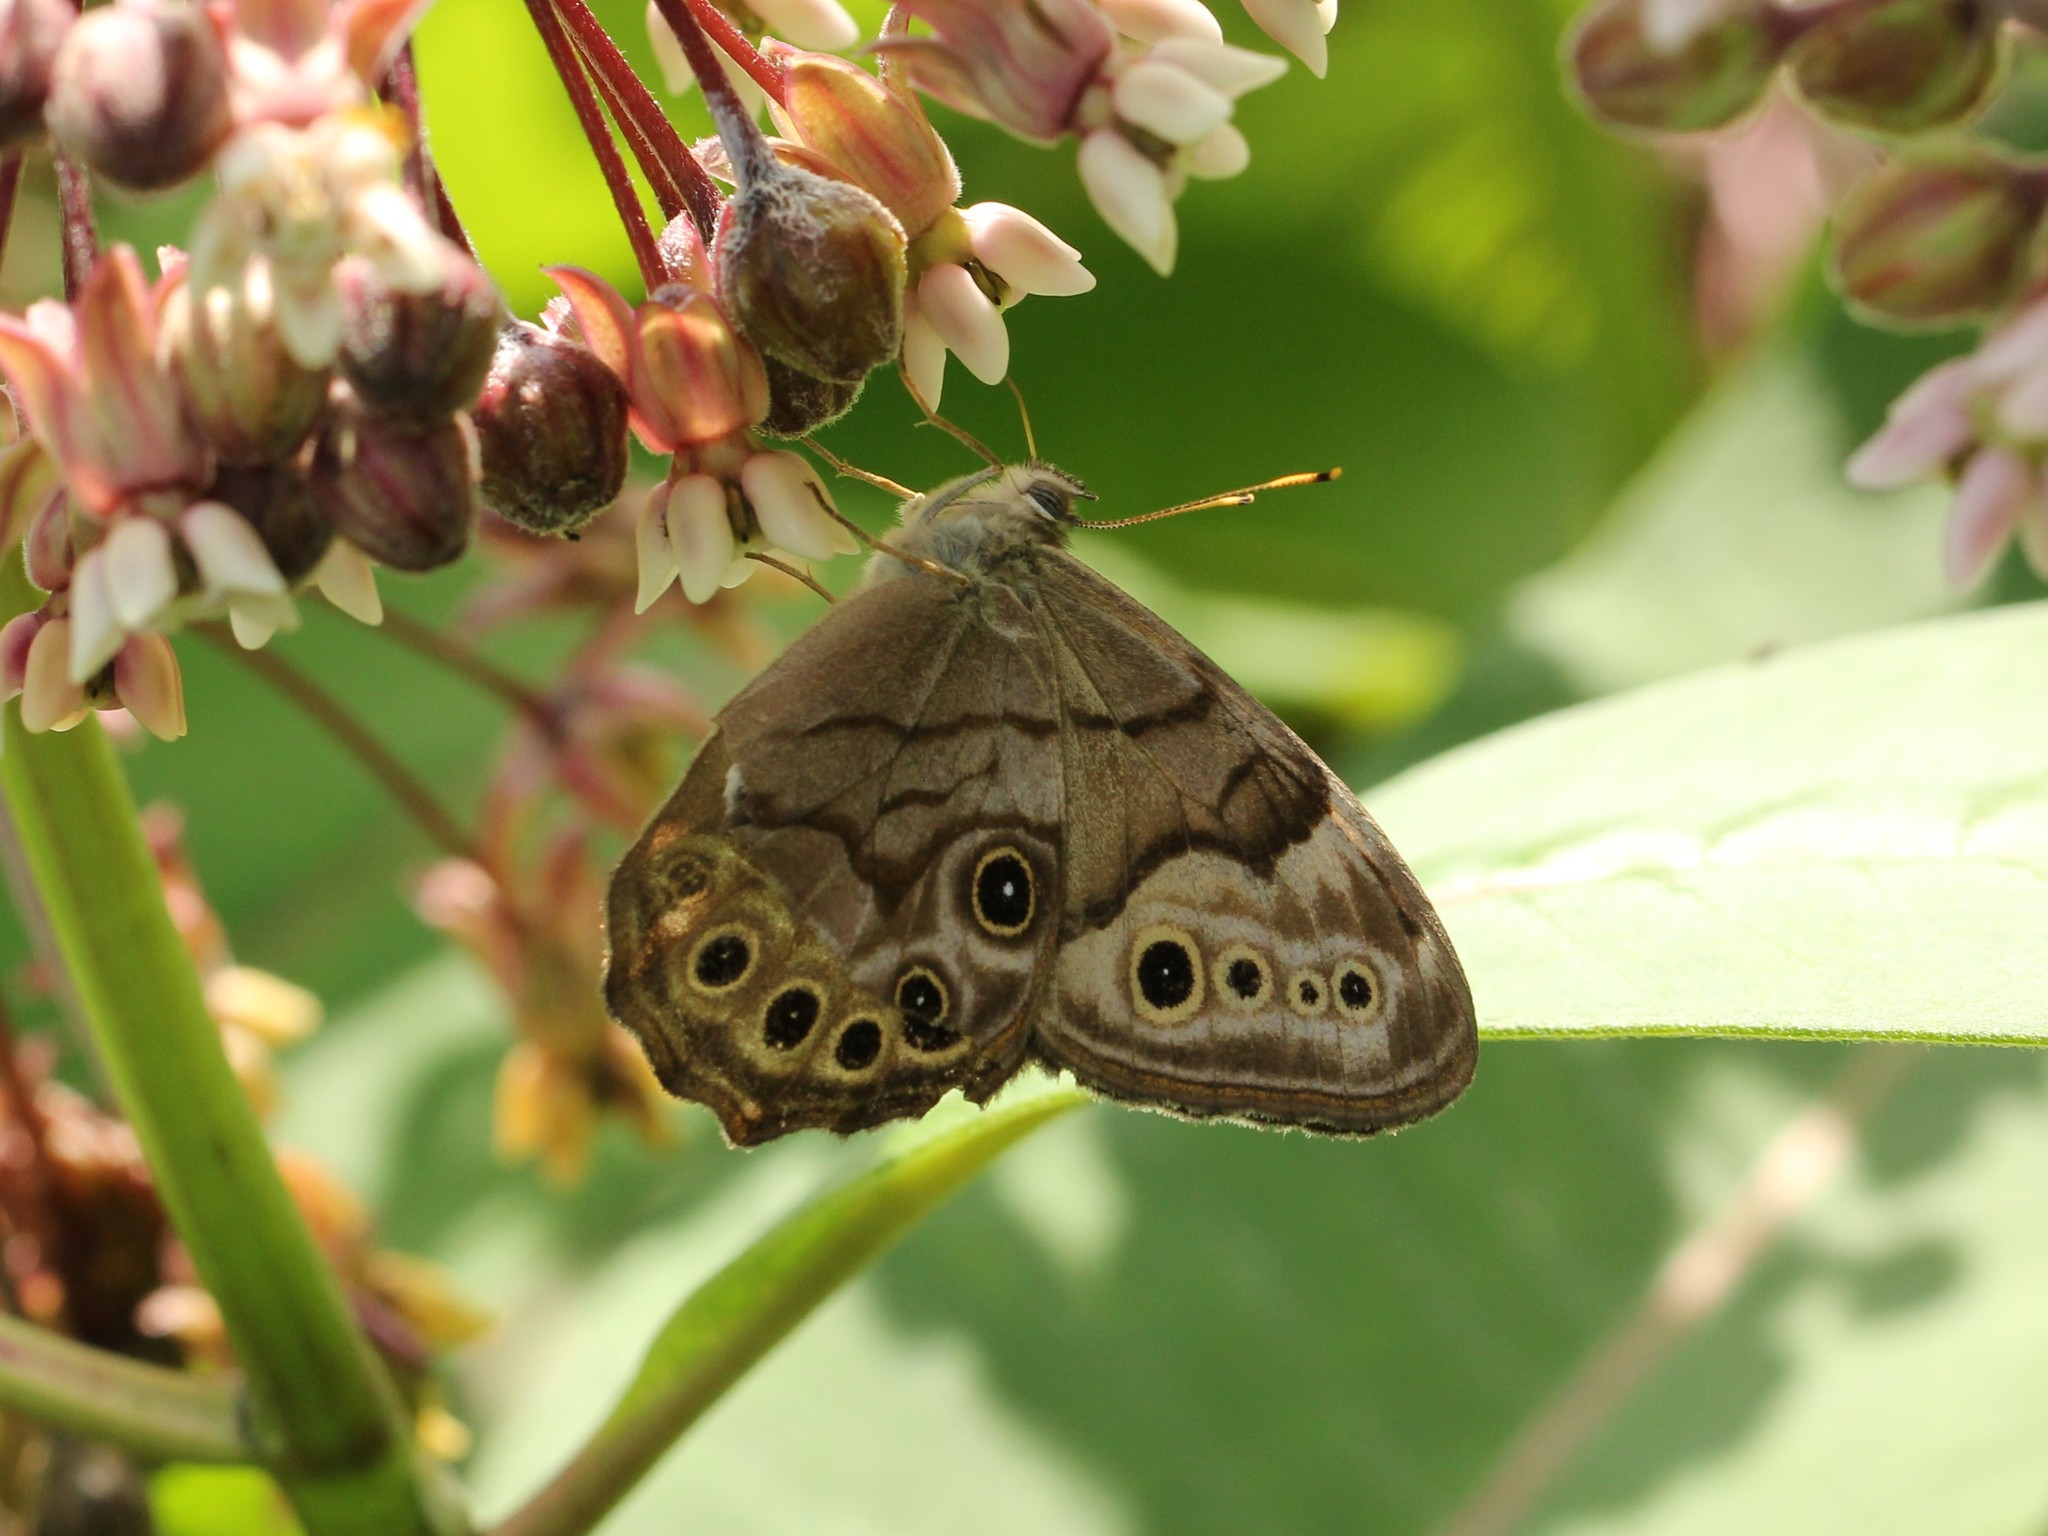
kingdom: Animalia
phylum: Arthropoda
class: Insecta
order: Lepidoptera
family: Nymphalidae
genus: Lethe
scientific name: Lethe anthedon
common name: Northern pearly-eye
